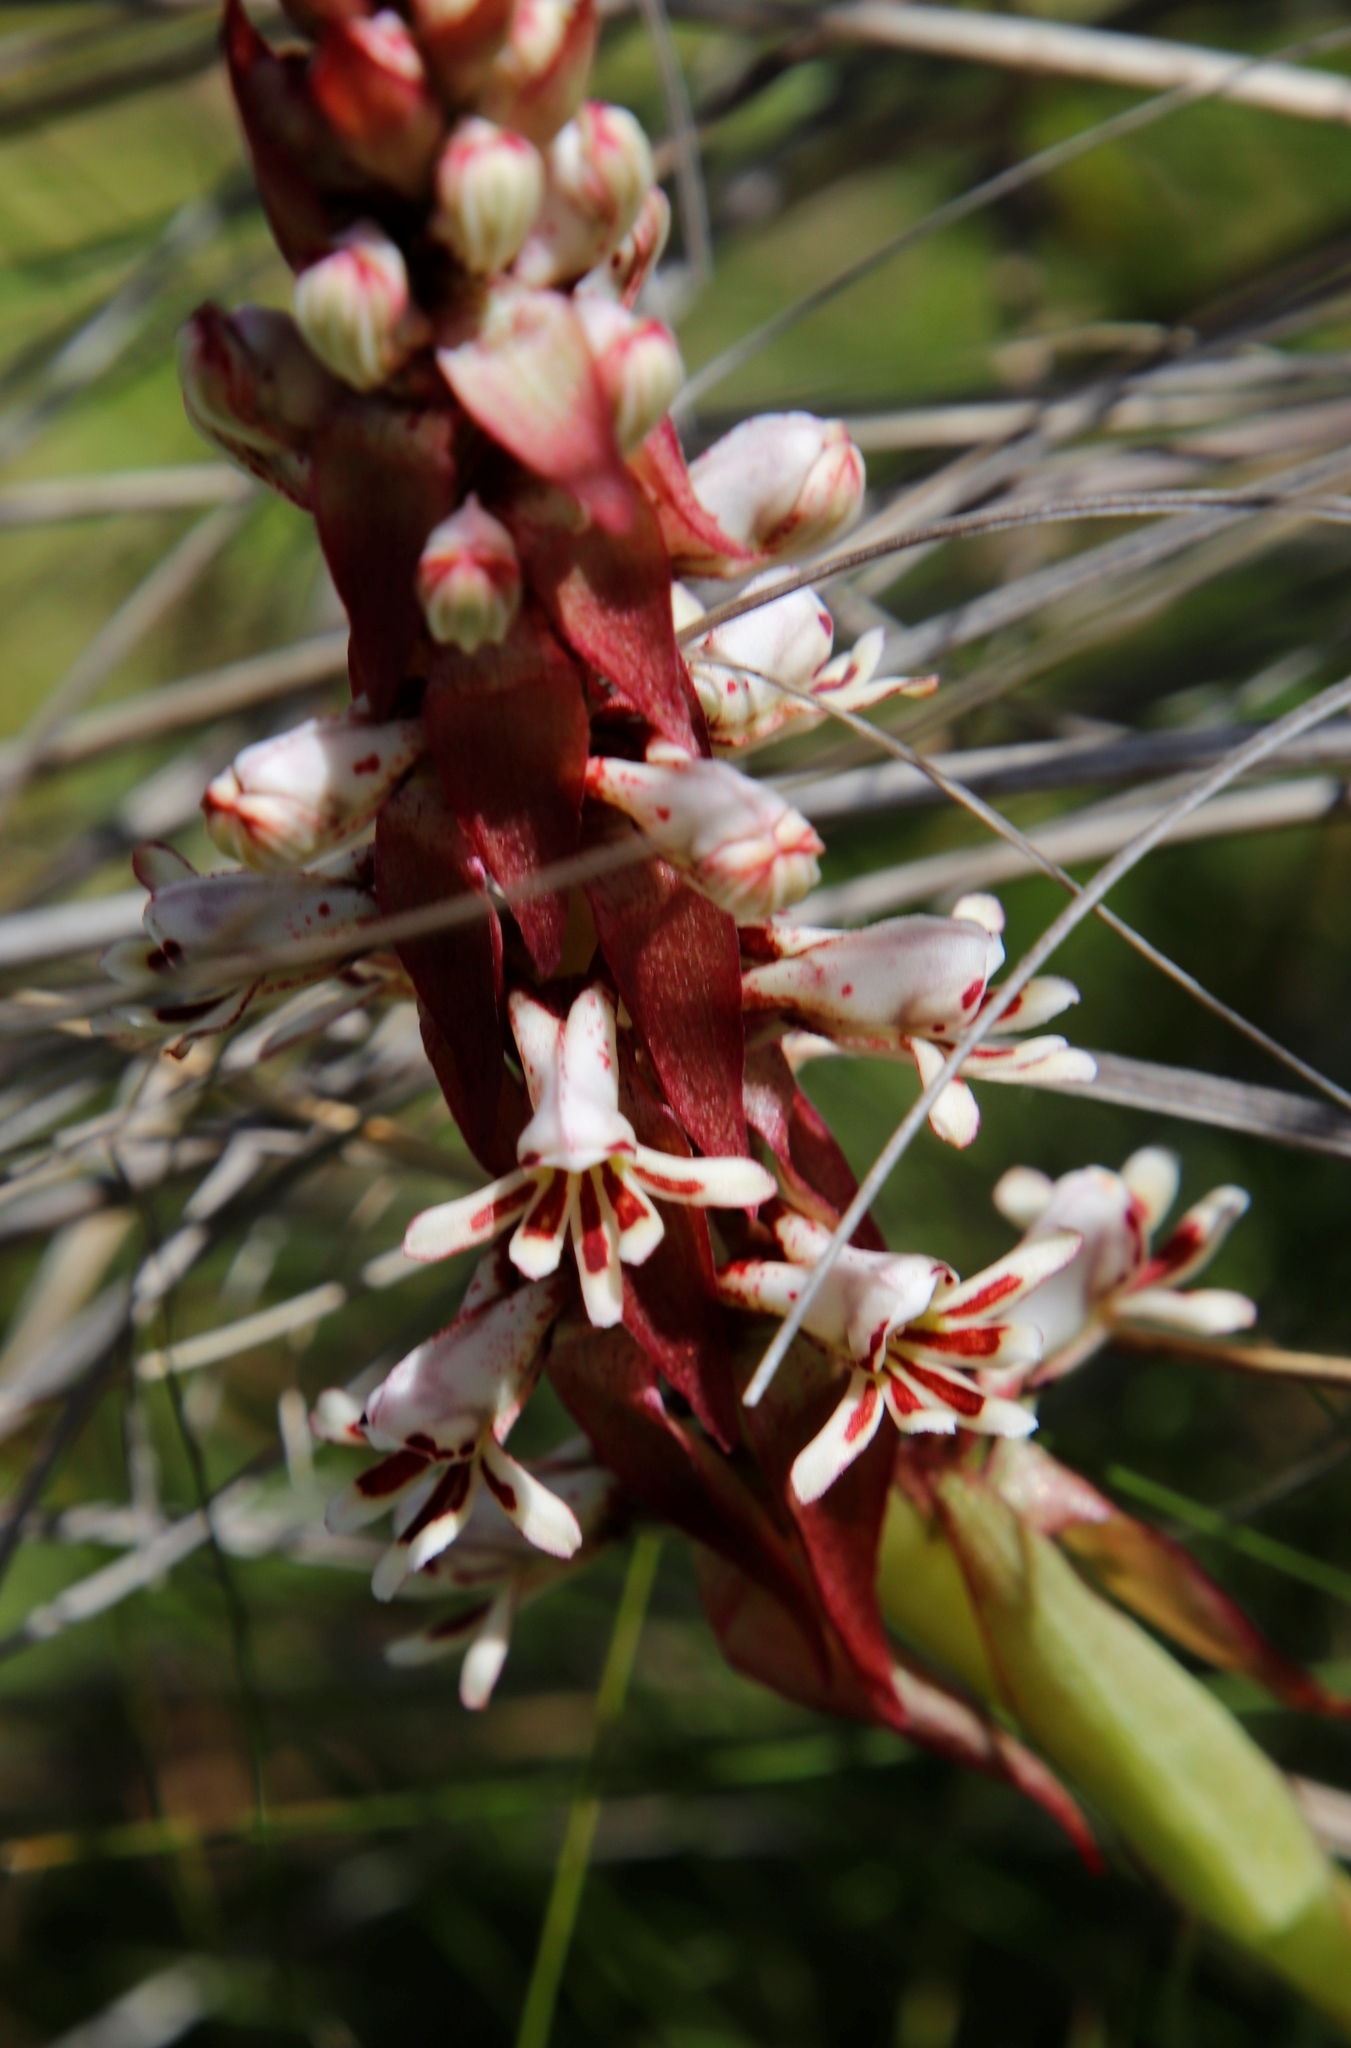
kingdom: Plantae
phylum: Tracheophyta
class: Liliopsida
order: Asparagales
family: Orchidaceae
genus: Satyrium
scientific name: Satyrium cristatum
